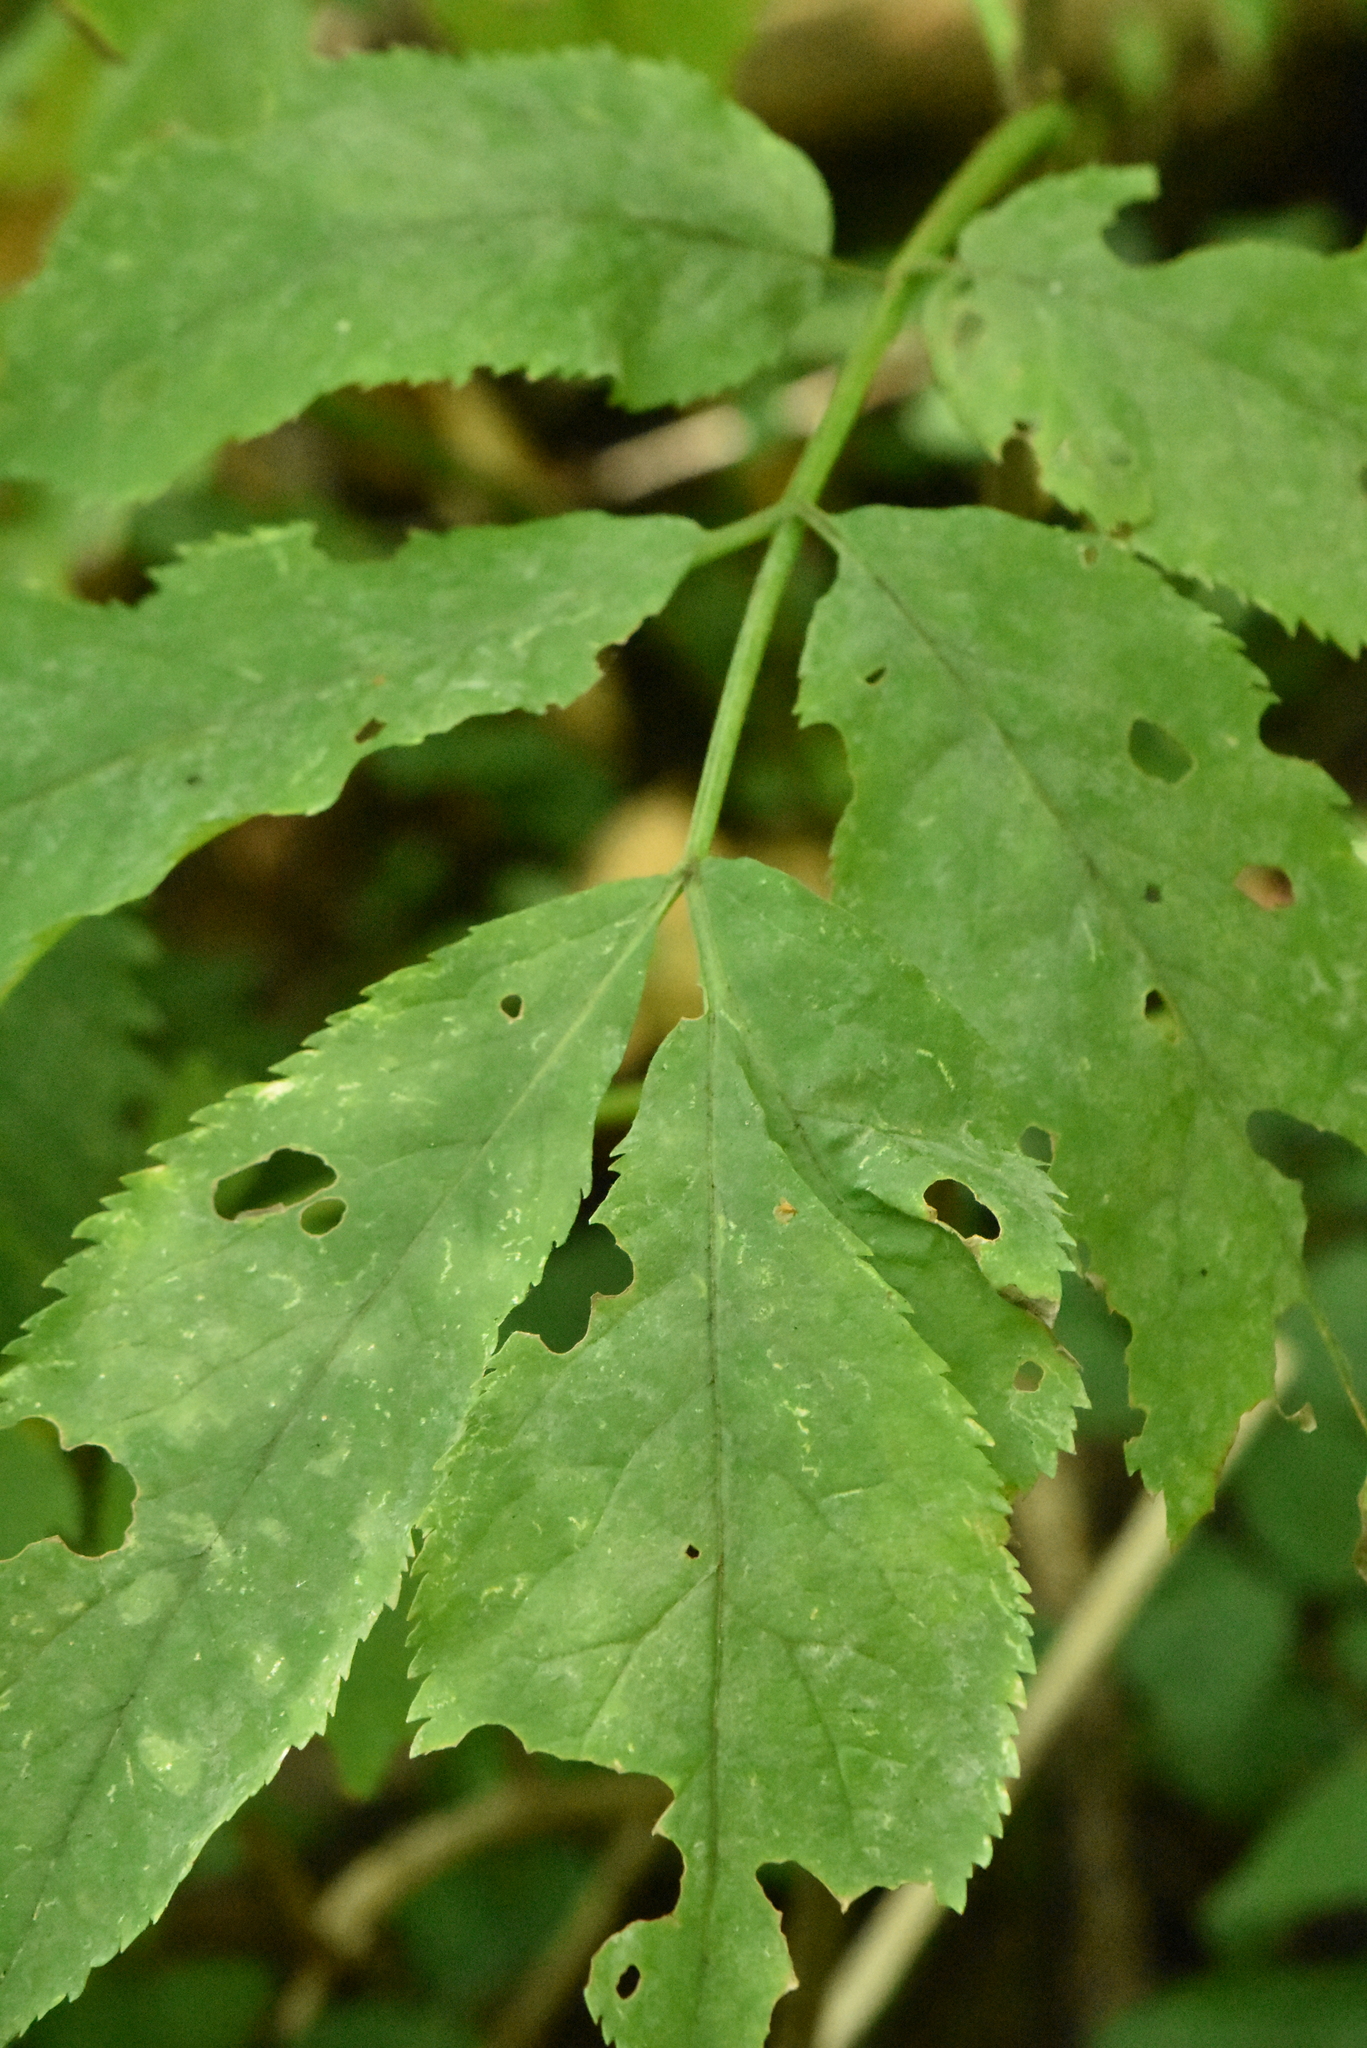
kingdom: Plantae
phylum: Tracheophyta
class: Magnoliopsida
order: Dipsacales
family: Viburnaceae
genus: Sambucus
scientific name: Sambucus racemosa
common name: Red-berried elder
